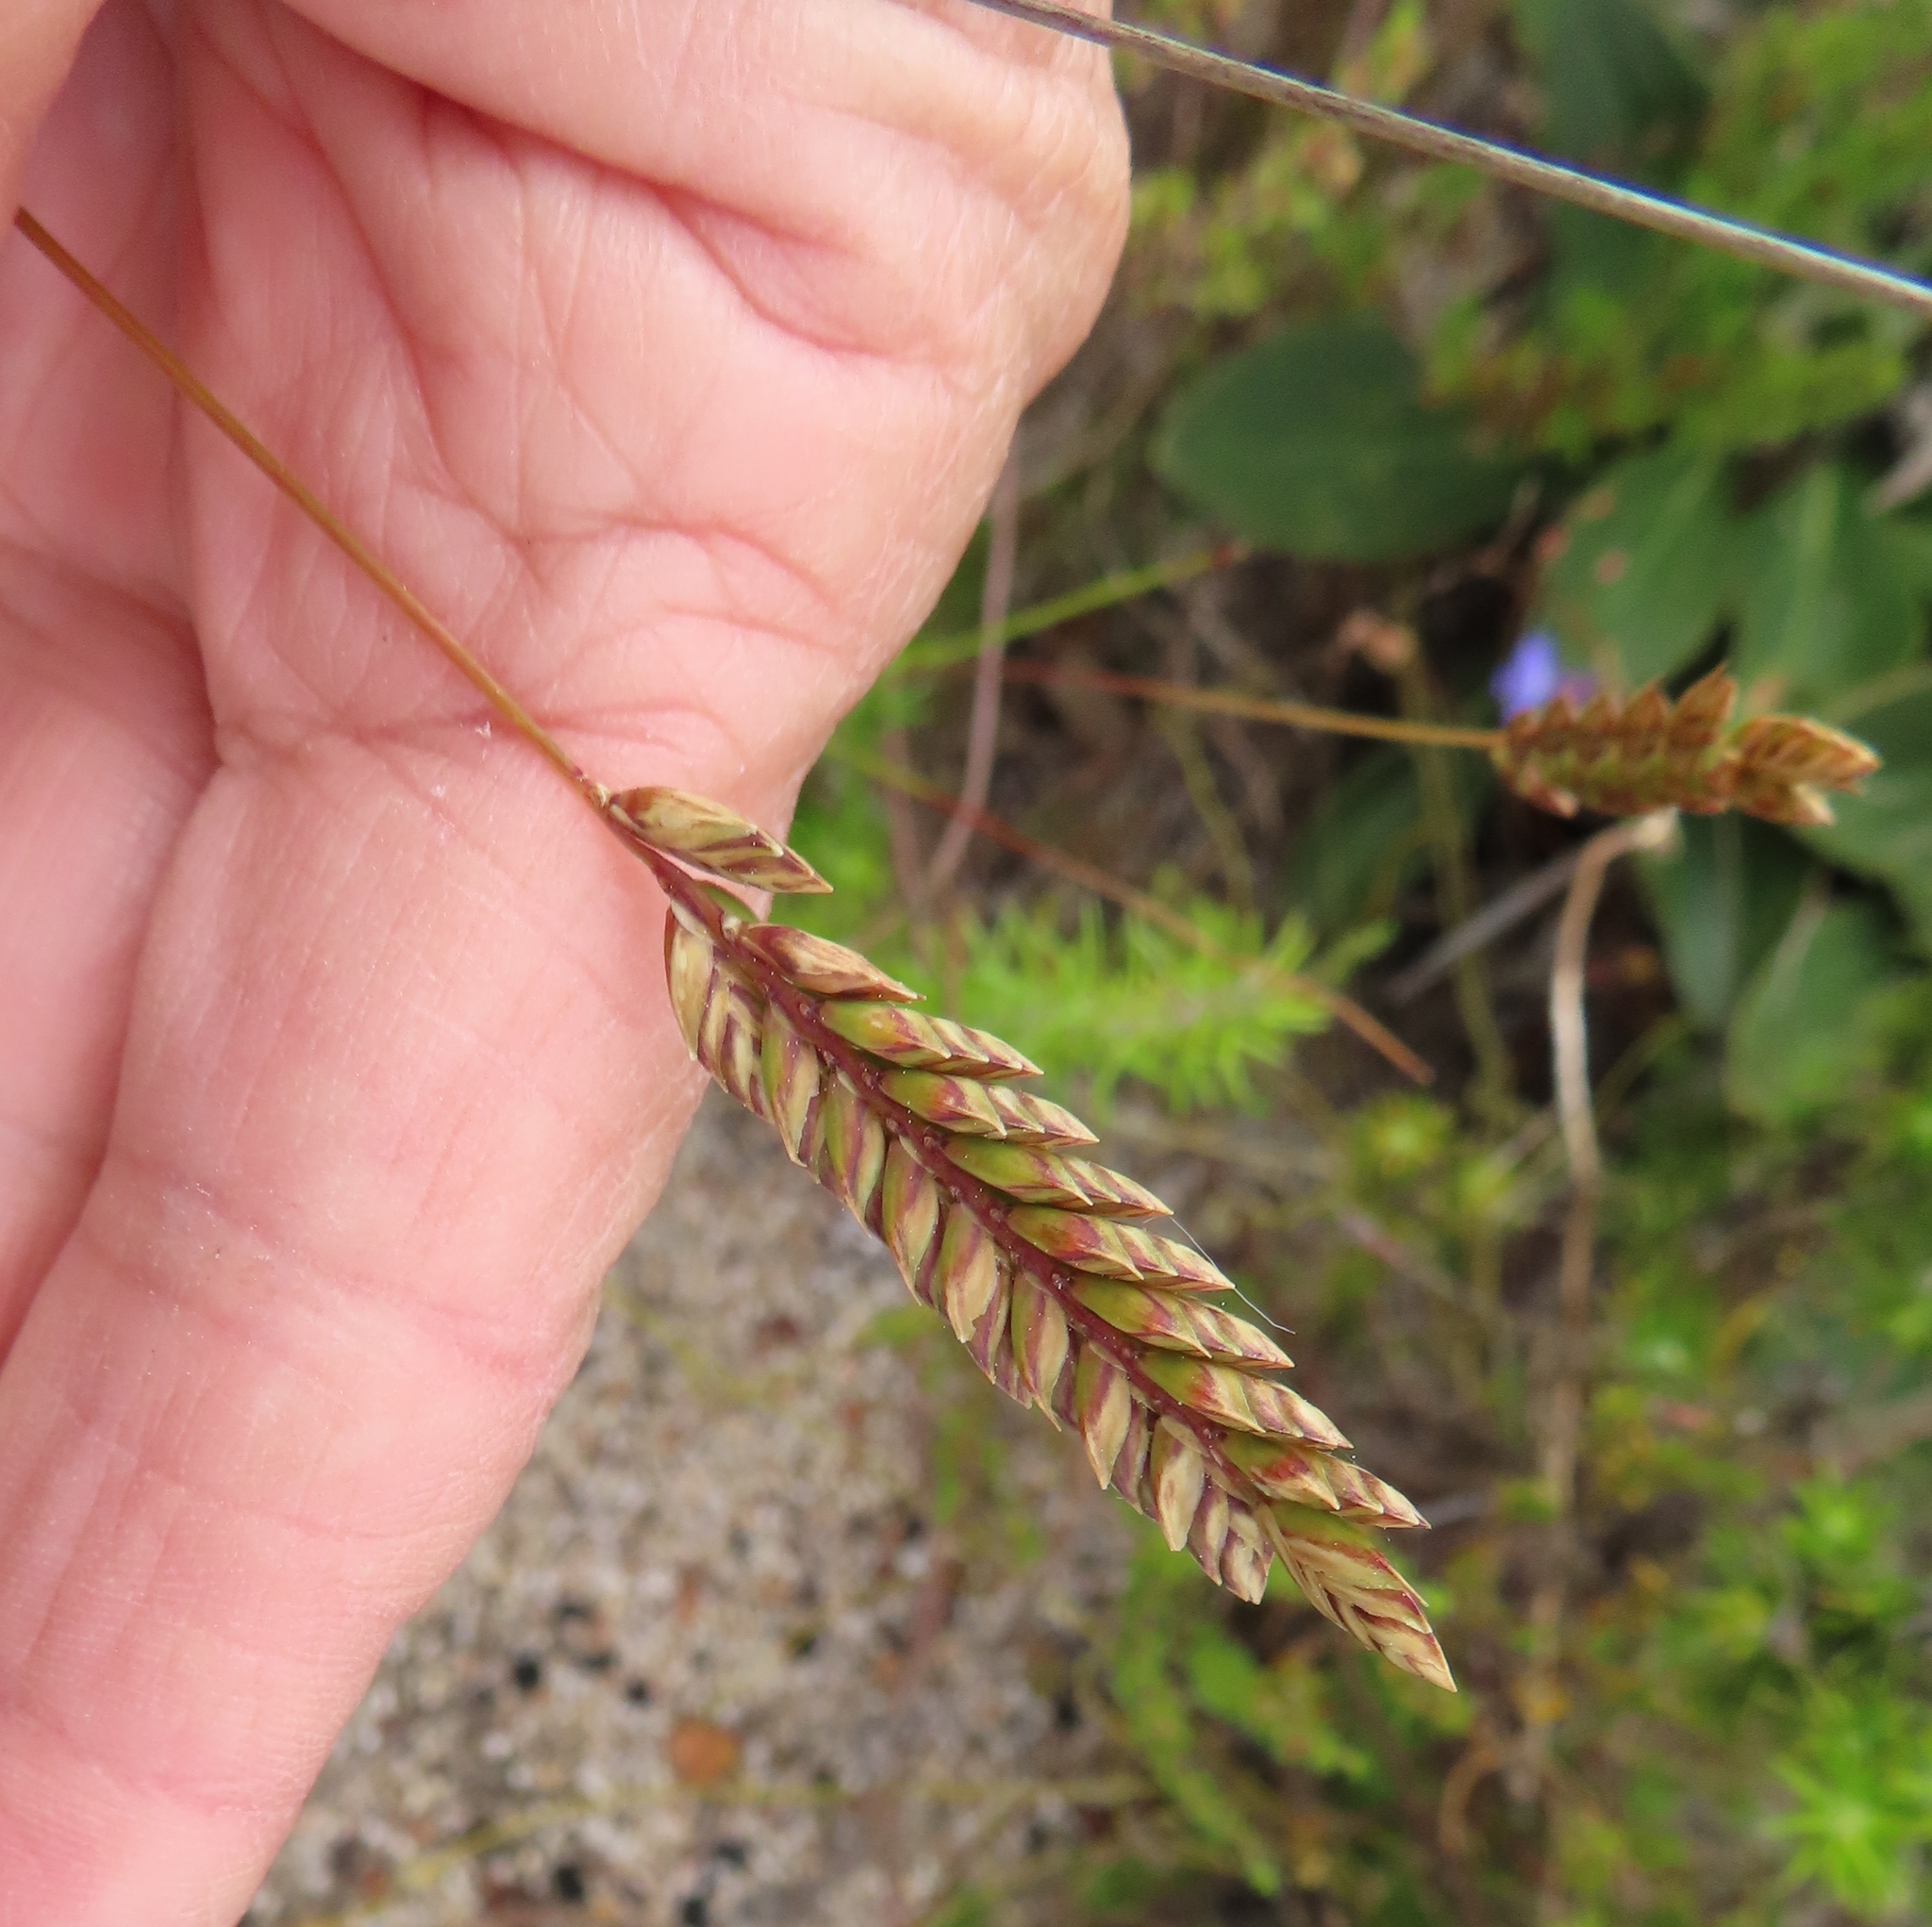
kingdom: Plantae
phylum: Tracheophyta
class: Liliopsida
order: Poales
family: Poaceae
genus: Tribolium
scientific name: Tribolium uniolae
